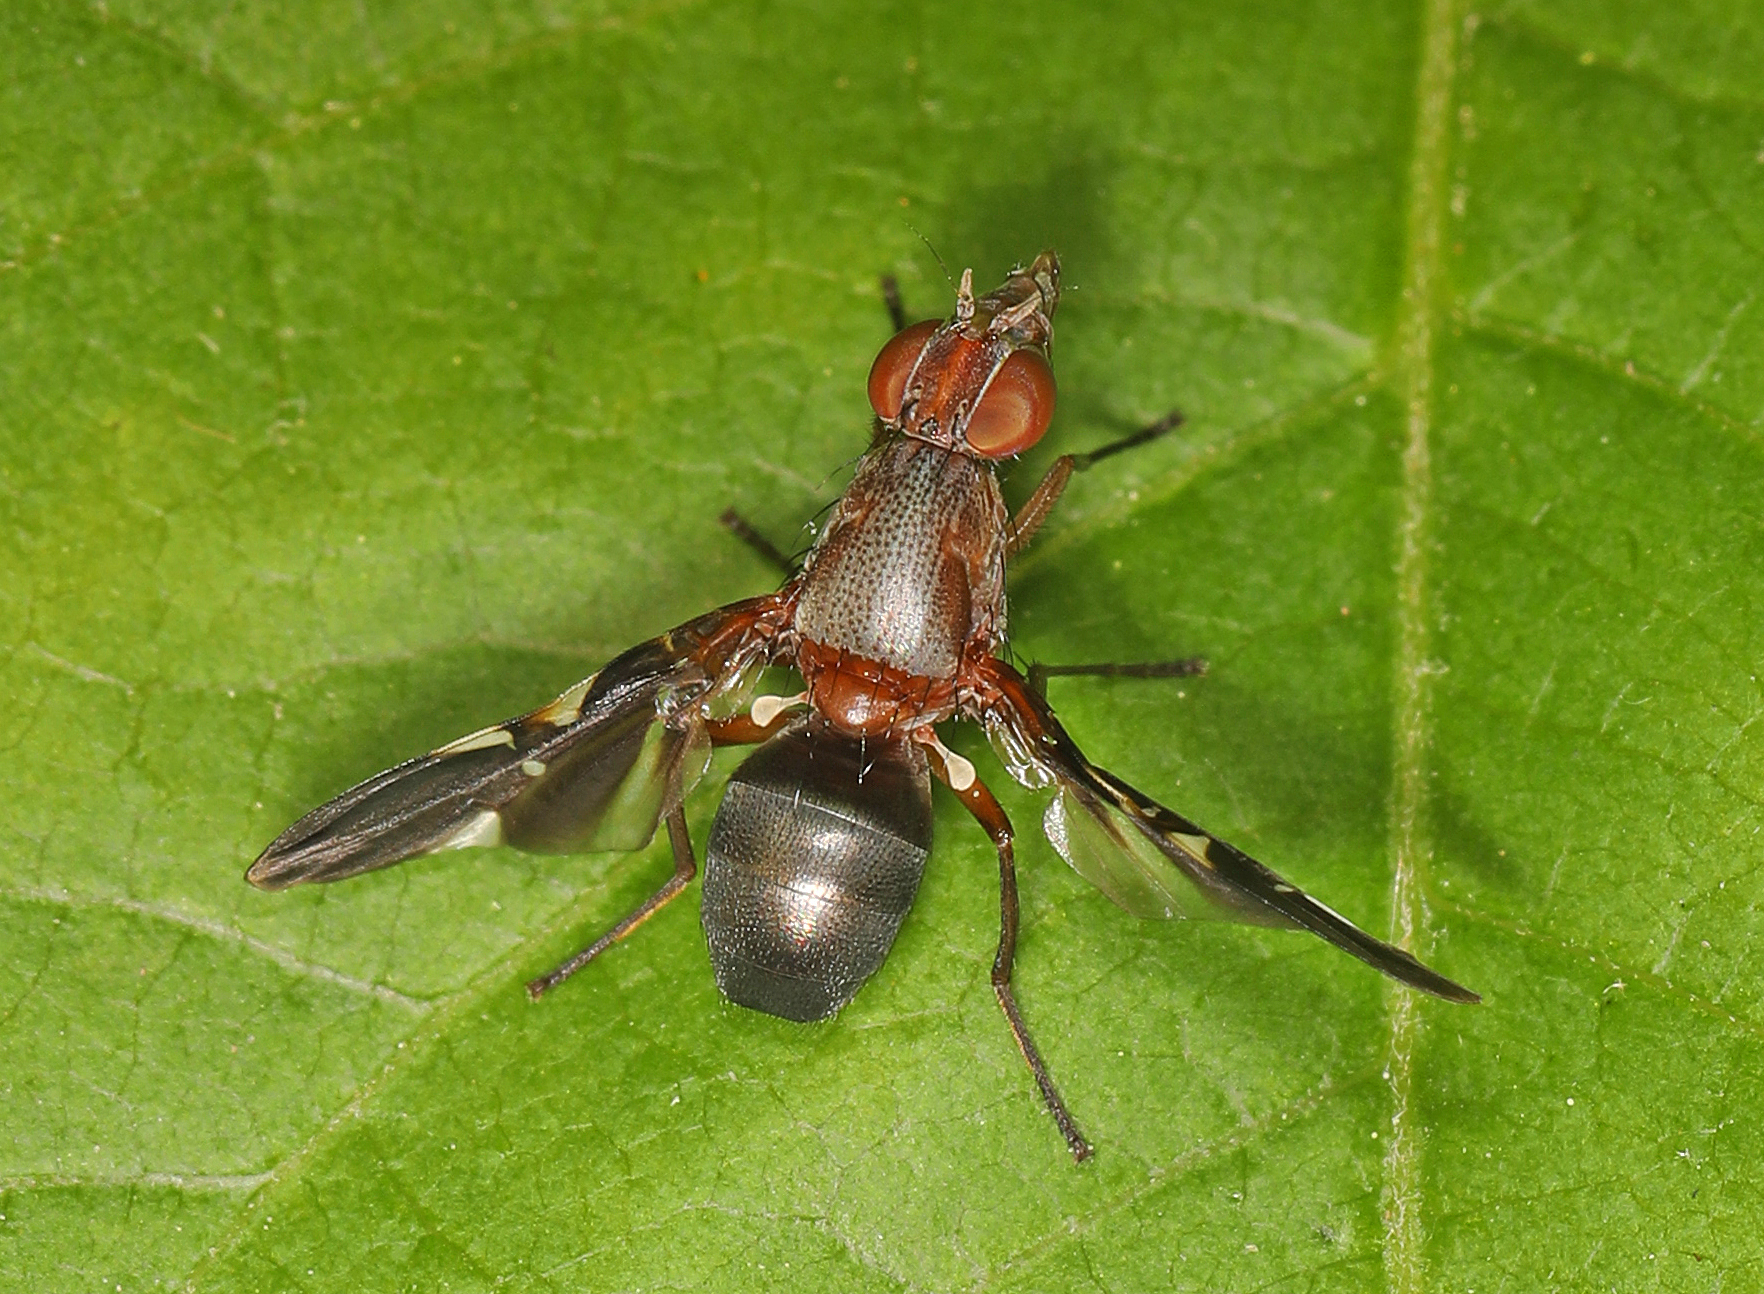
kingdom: Animalia
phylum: Arthropoda
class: Insecta
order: Diptera
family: Ulidiidae
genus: Delphinia
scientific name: Delphinia picta
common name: Common picture-winged fly
